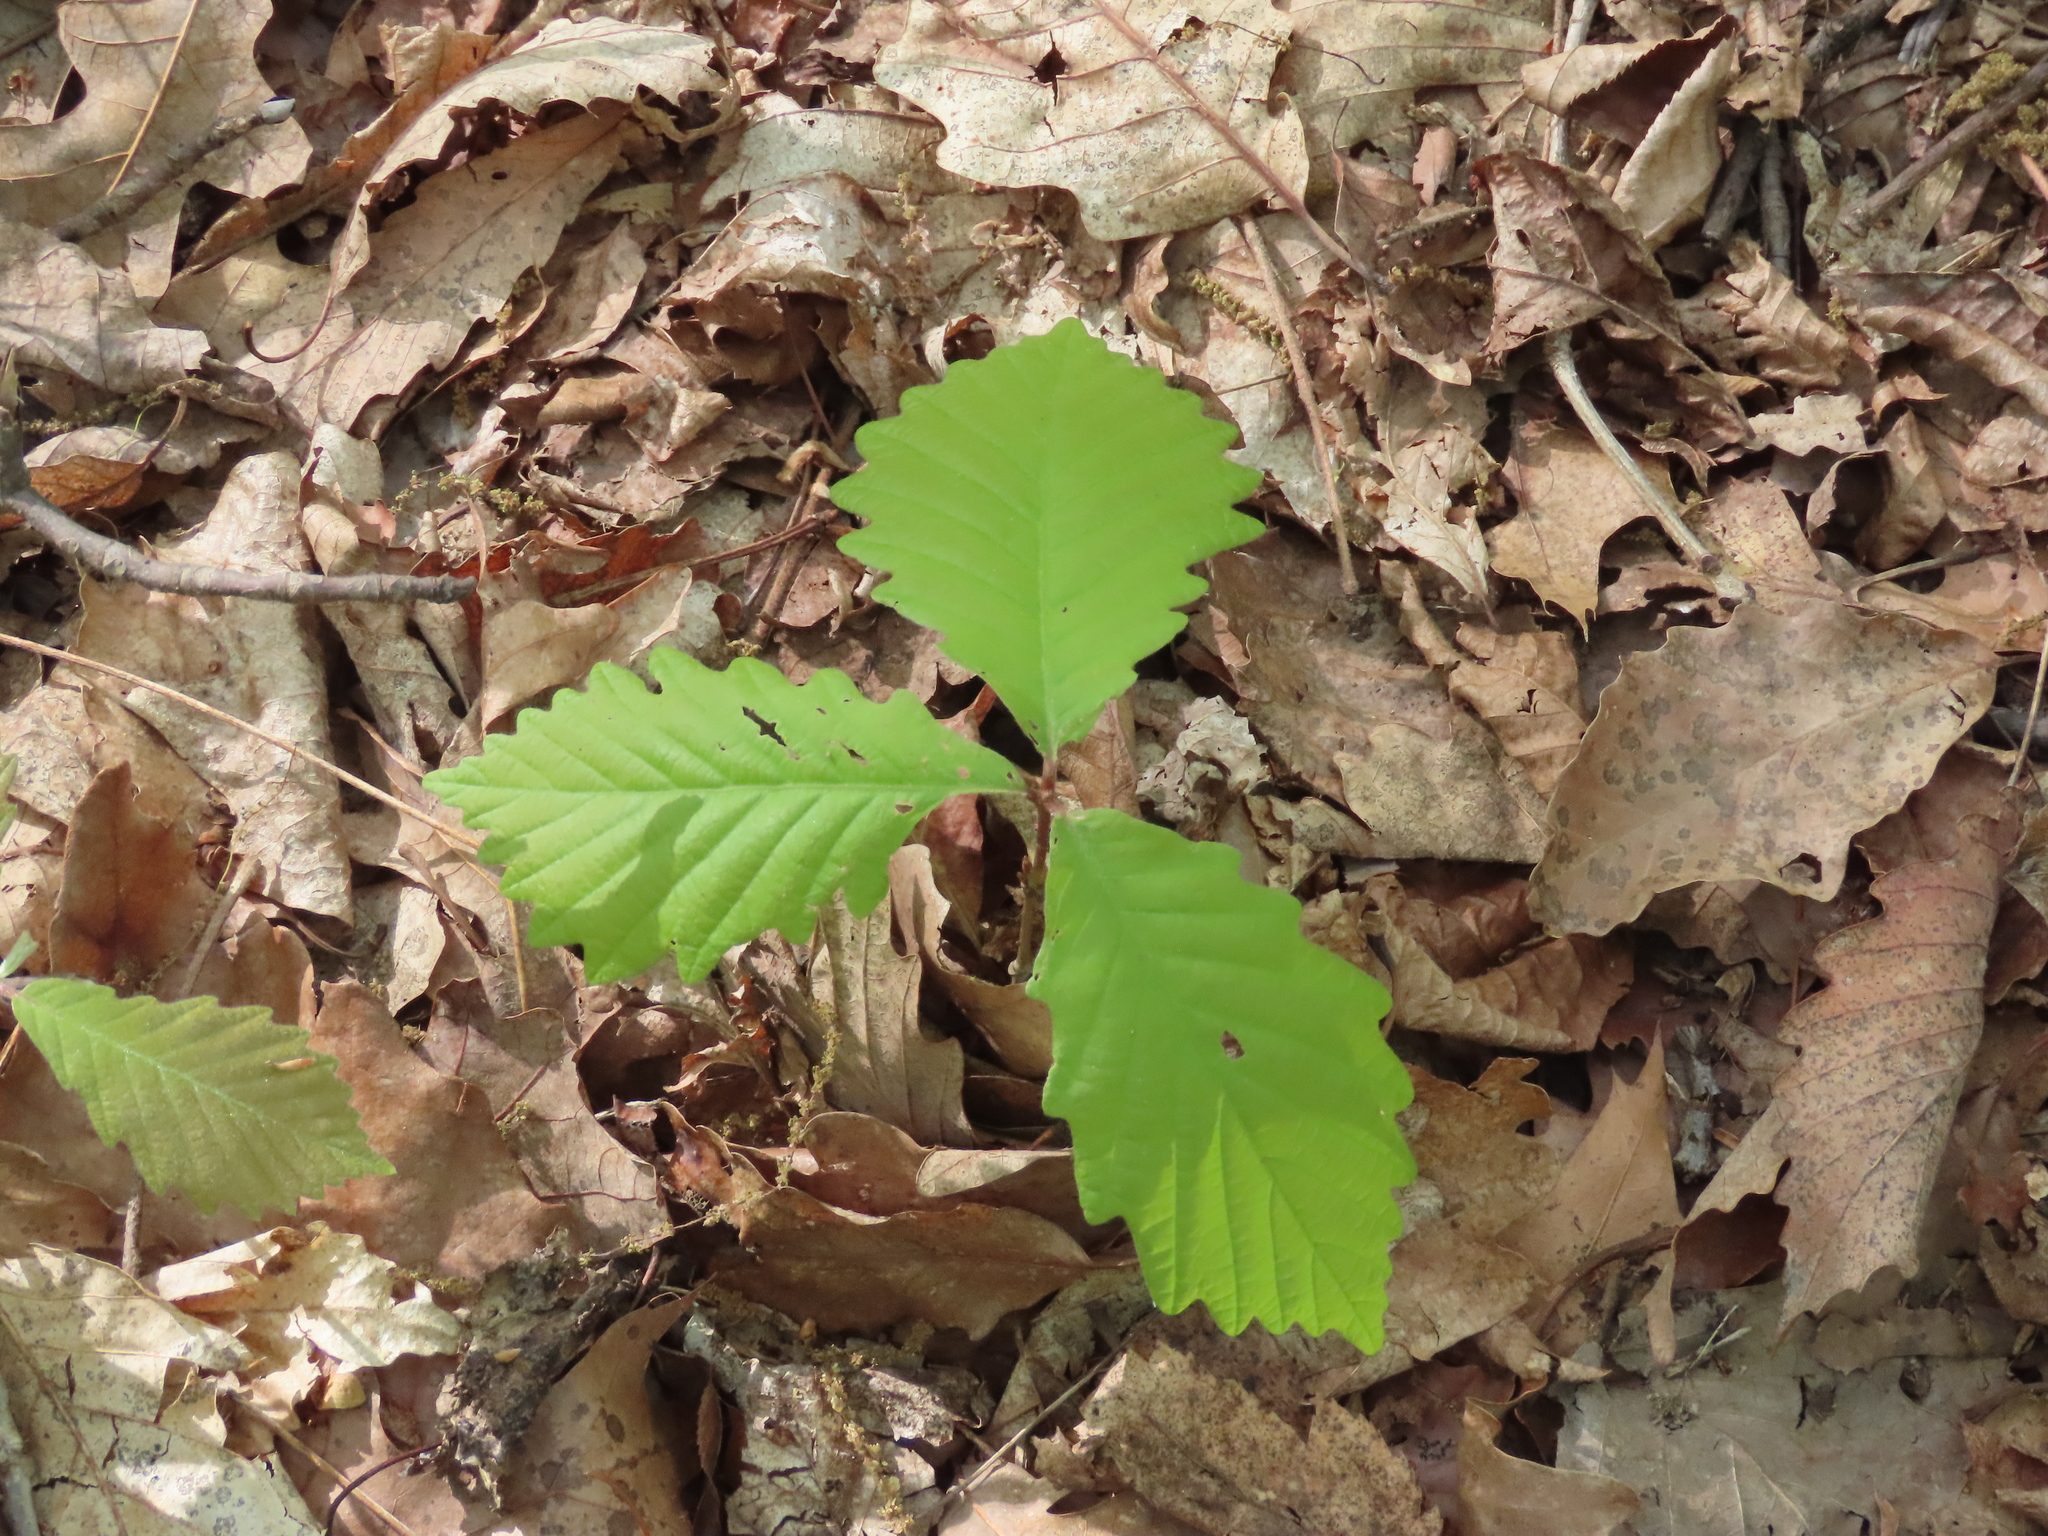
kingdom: Plantae
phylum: Tracheophyta
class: Magnoliopsida
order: Fagales
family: Fagaceae
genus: Quercus
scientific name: Quercus montana
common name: Chestnut oak
